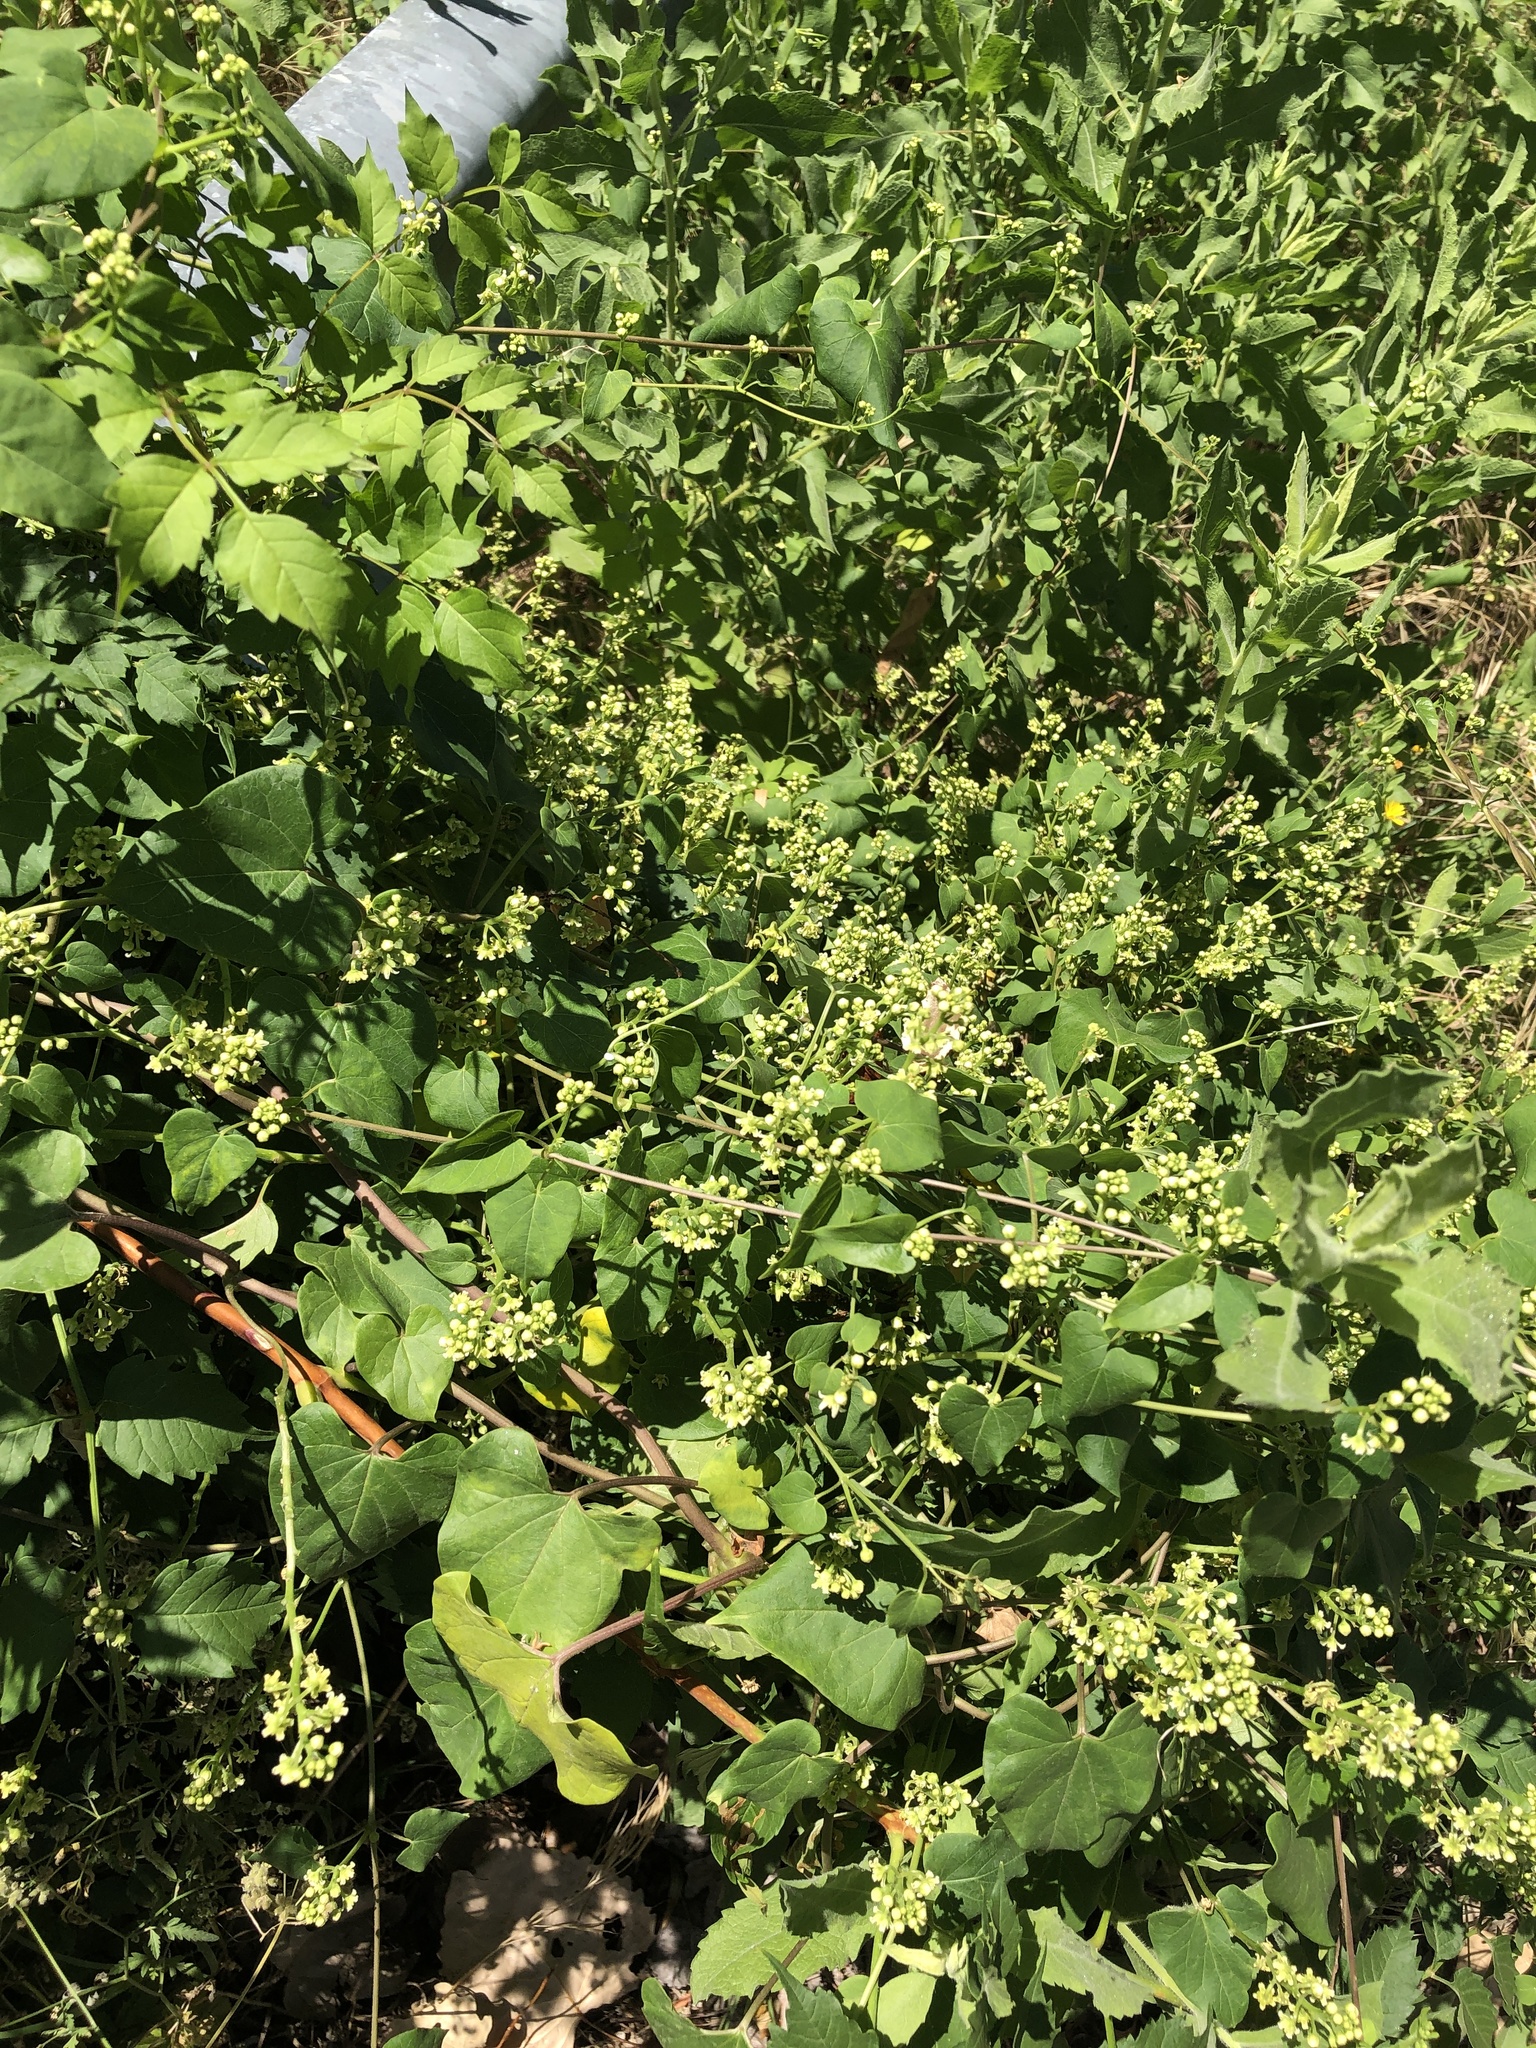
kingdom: Plantae
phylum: Tracheophyta
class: Magnoliopsida
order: Gentianales
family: Apocynaceae
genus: Cynanchum
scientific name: Cynanchum racemosum
